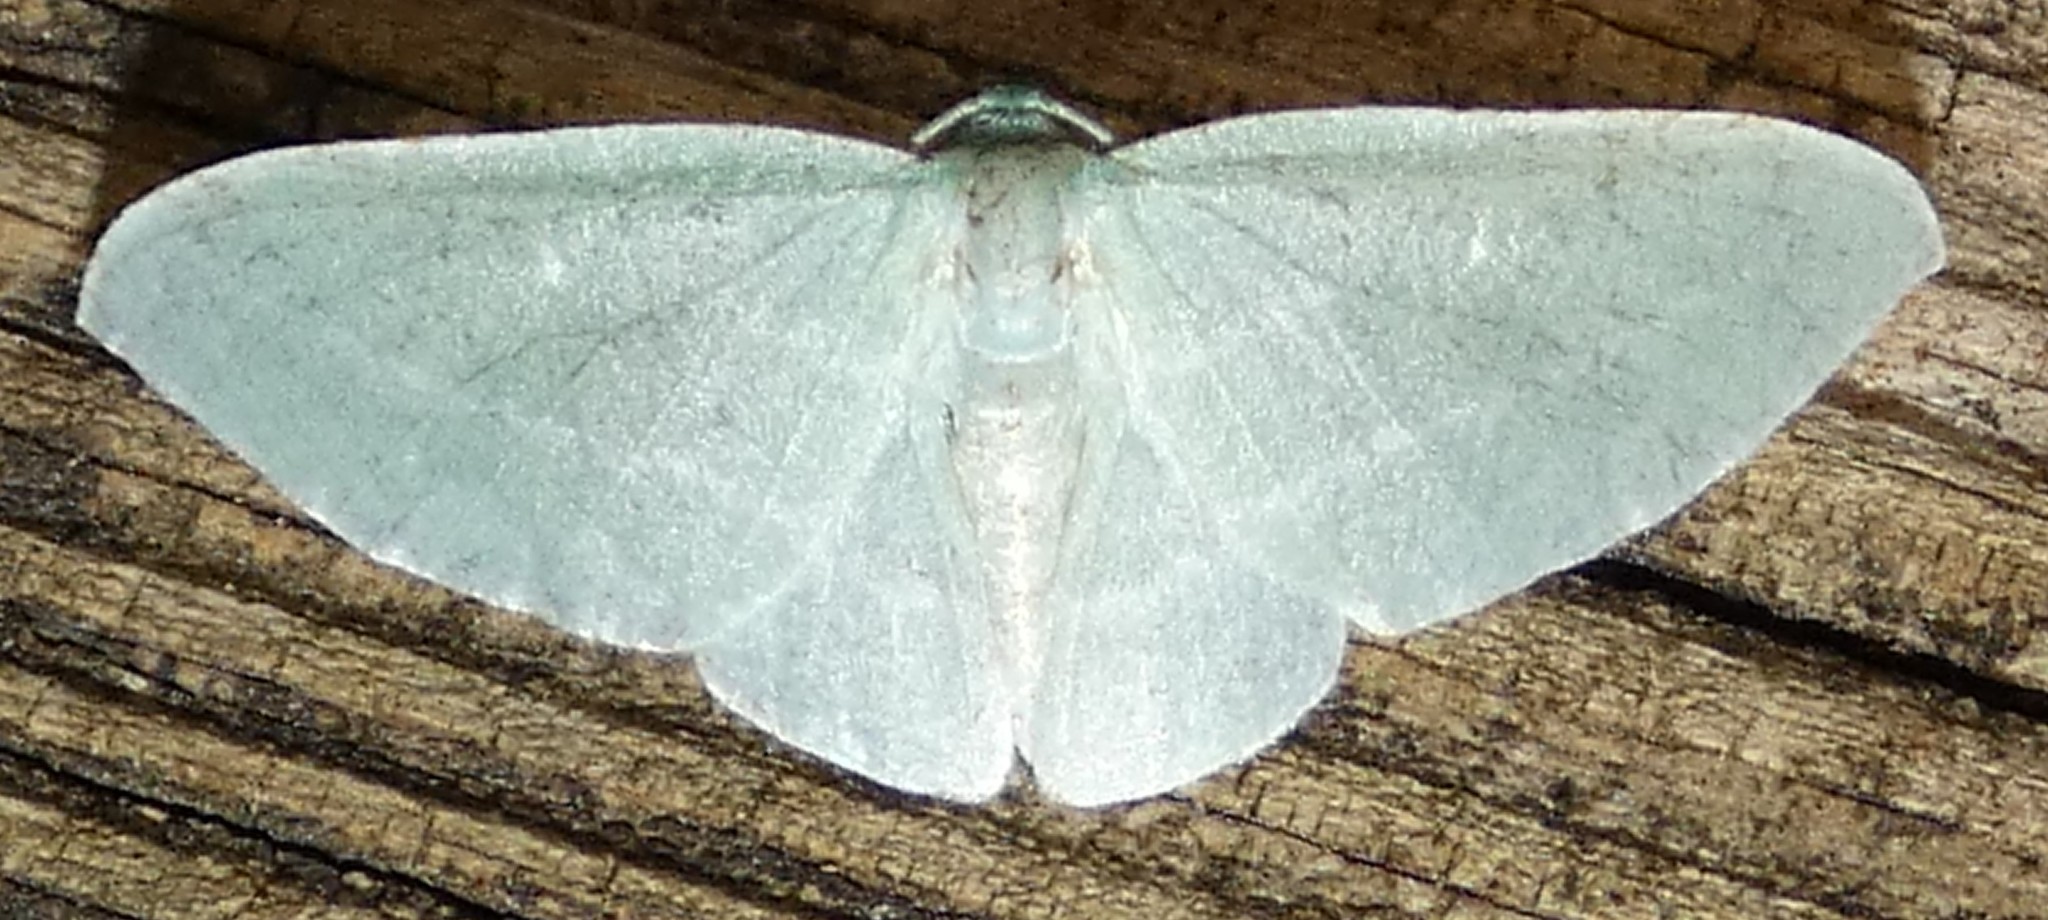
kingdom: Animalia
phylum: Arthropoda
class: Insecta
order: Lepidoptera
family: Geometridae
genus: Dyspteris
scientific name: Dyspteris abortivaria
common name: Bad-wing
